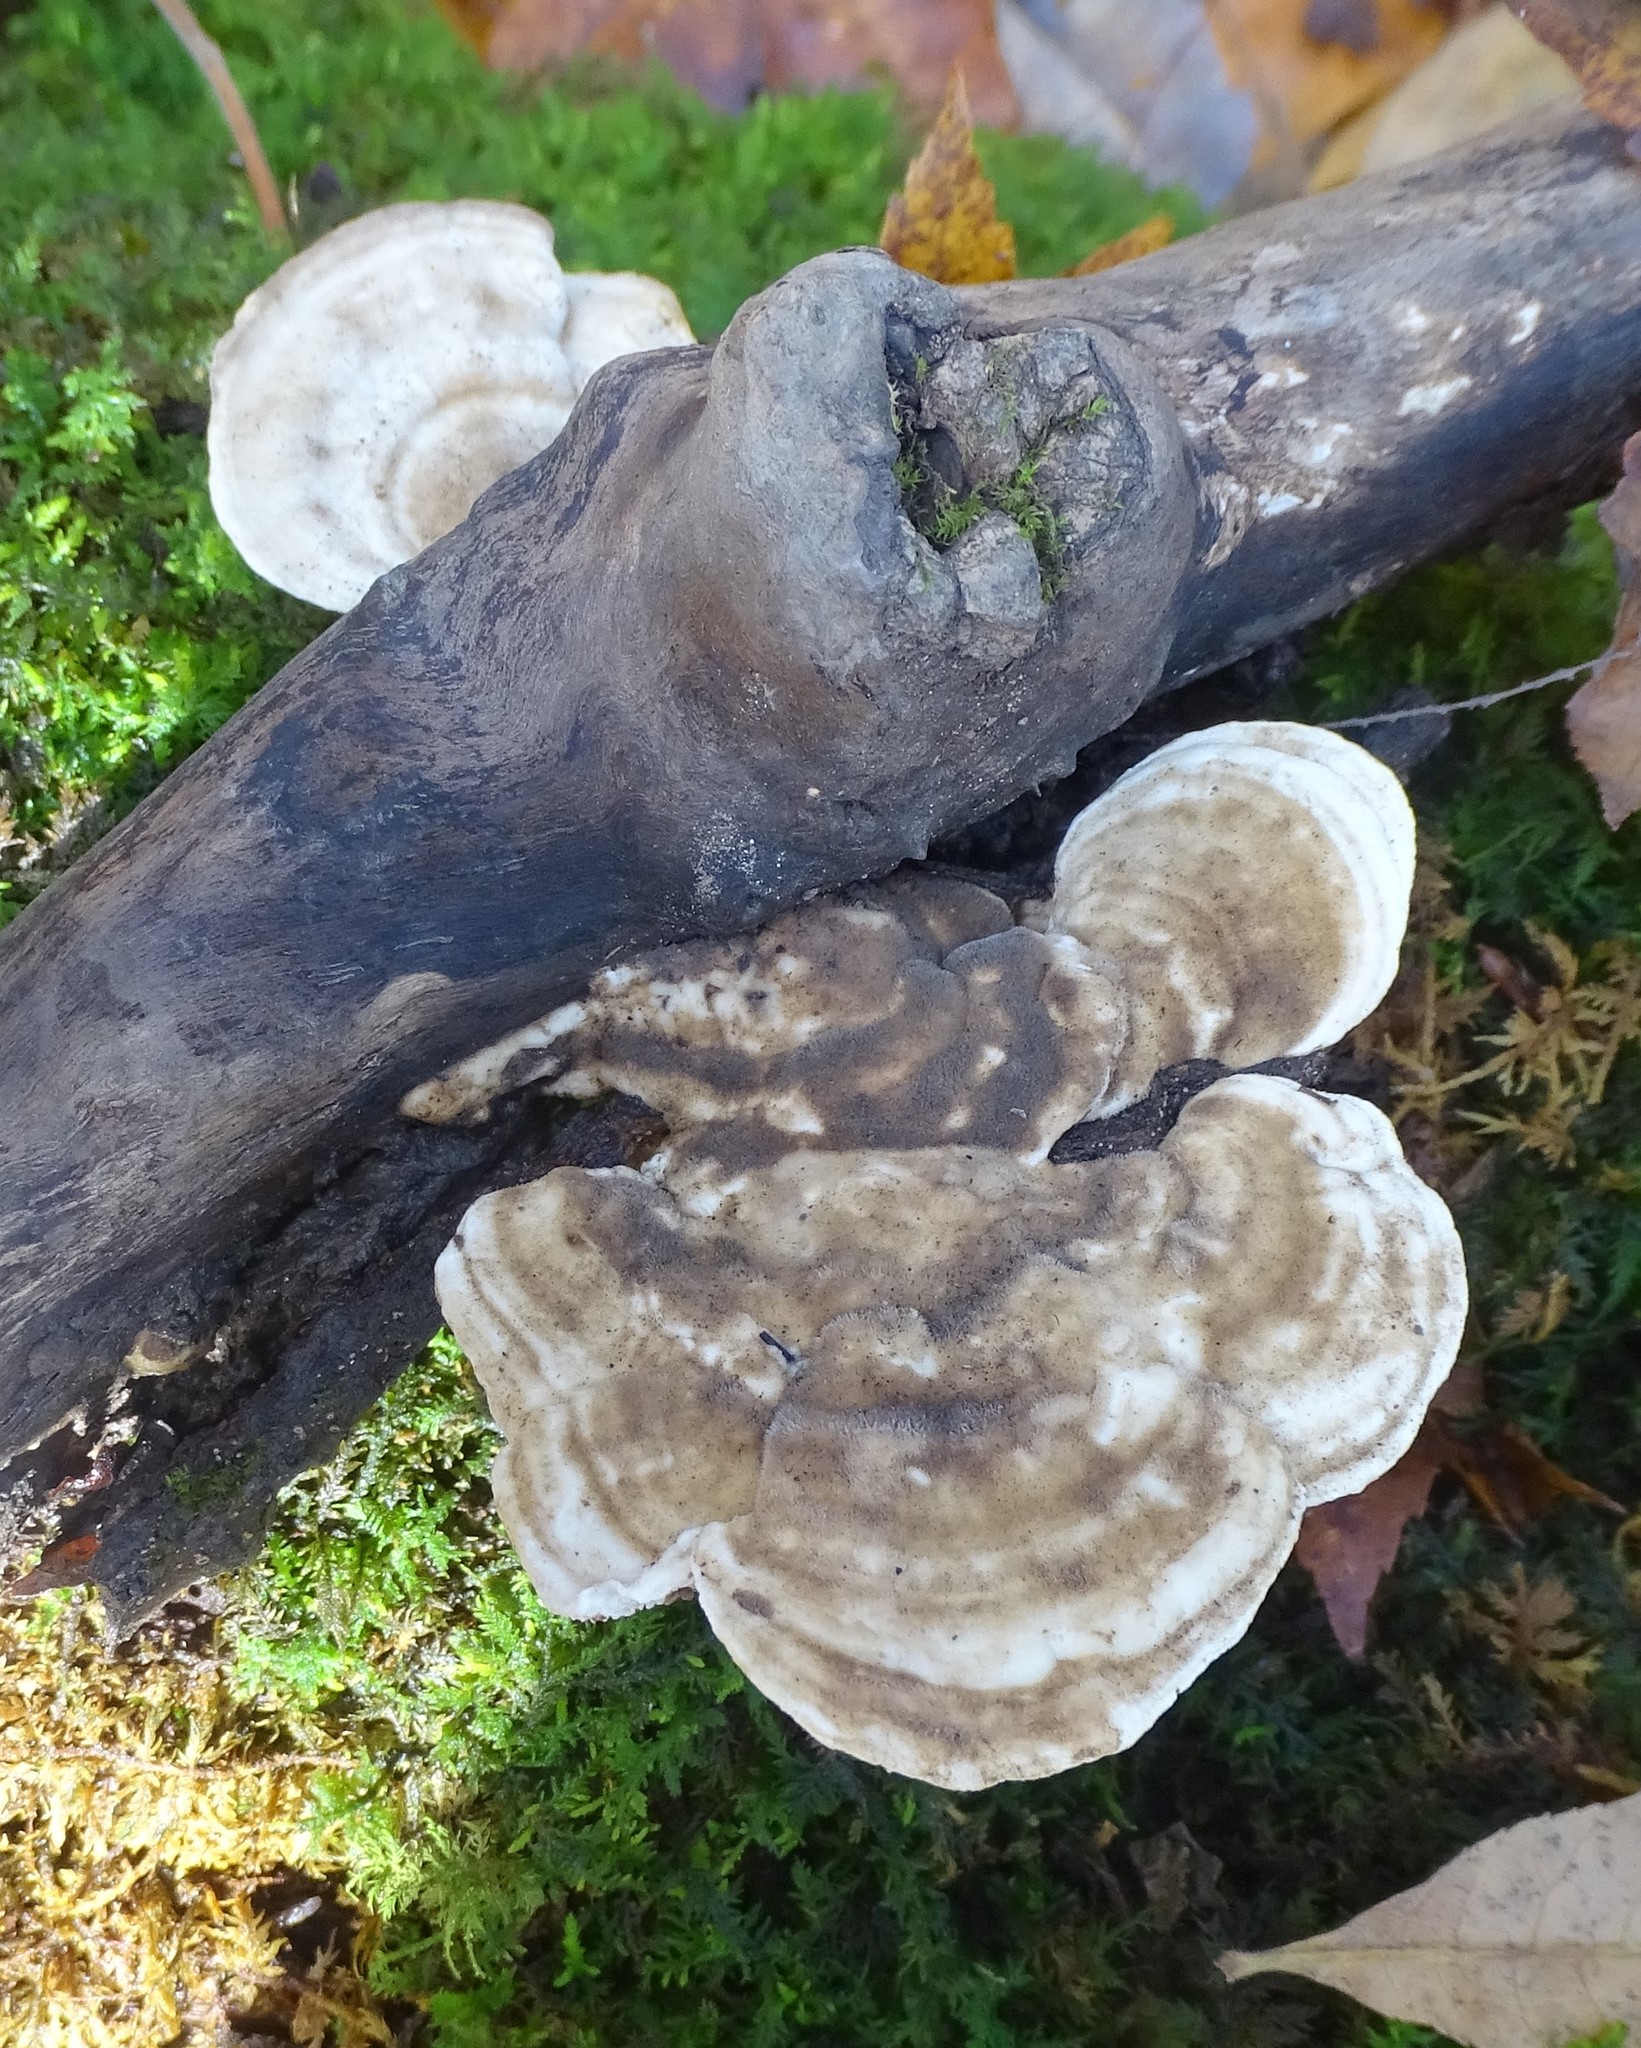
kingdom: Fungi
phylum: Basidiomycota
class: Agaricomycetes
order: Polyporales
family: Polyporaceae
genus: Trametes
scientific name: Trametes gibbosa
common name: Lumpy bracket
